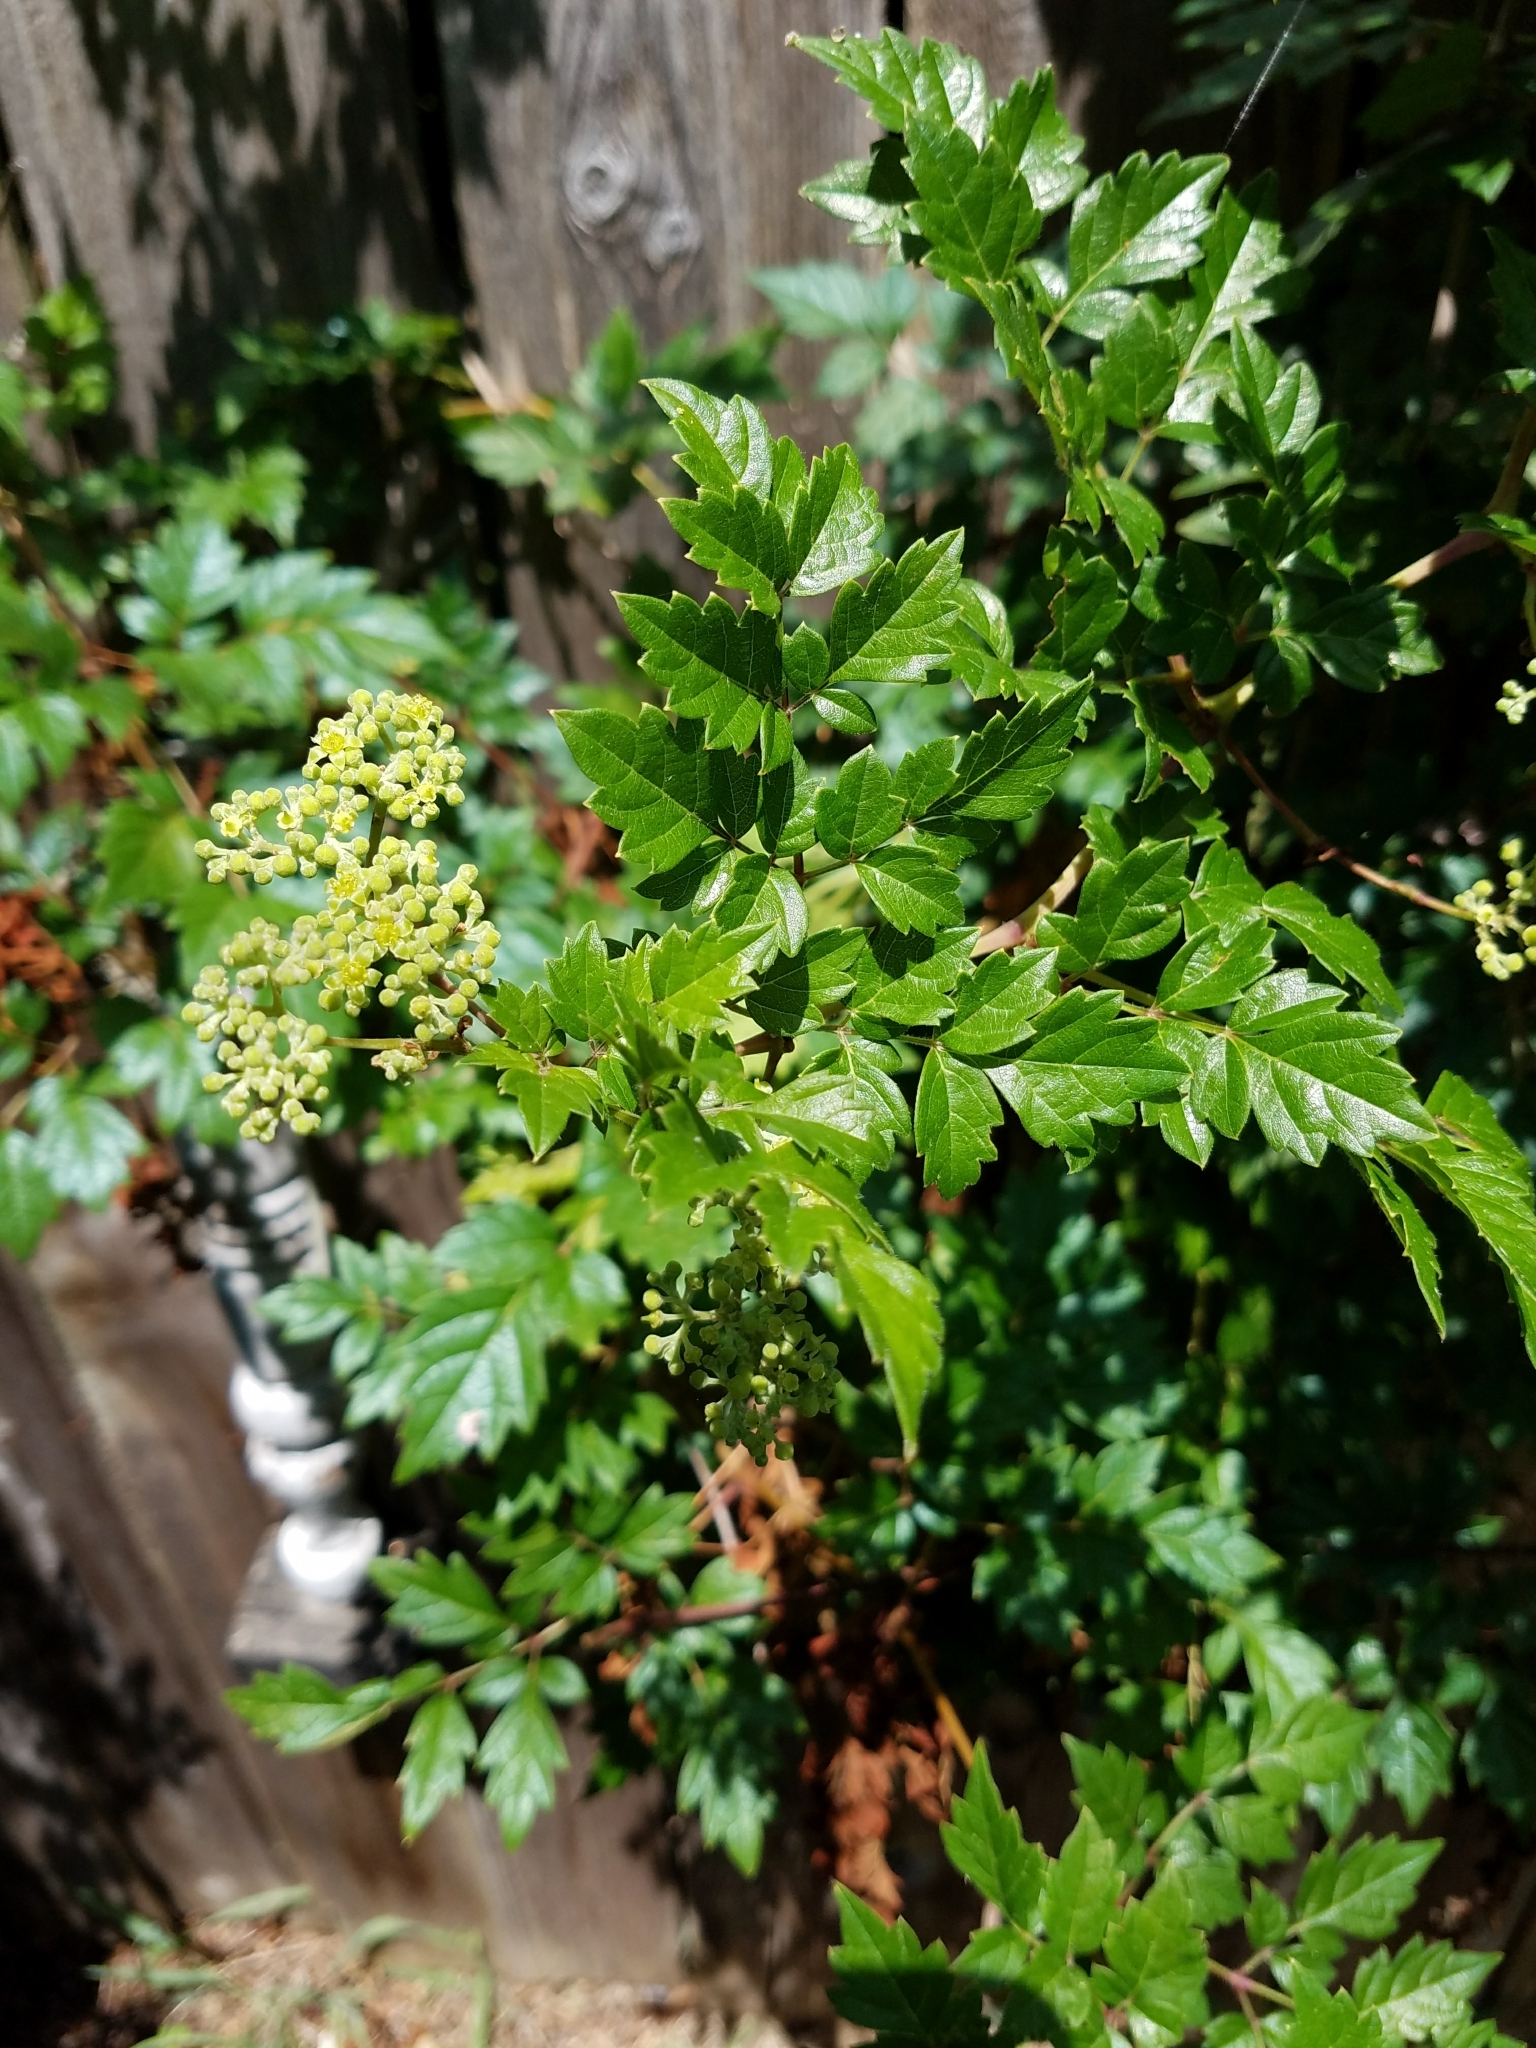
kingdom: Plantae
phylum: Tracheophyta
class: Magnoliopsida
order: Vitales
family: Vitaceae
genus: Nekemias
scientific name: Nekemias arborea
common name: Peppervine
